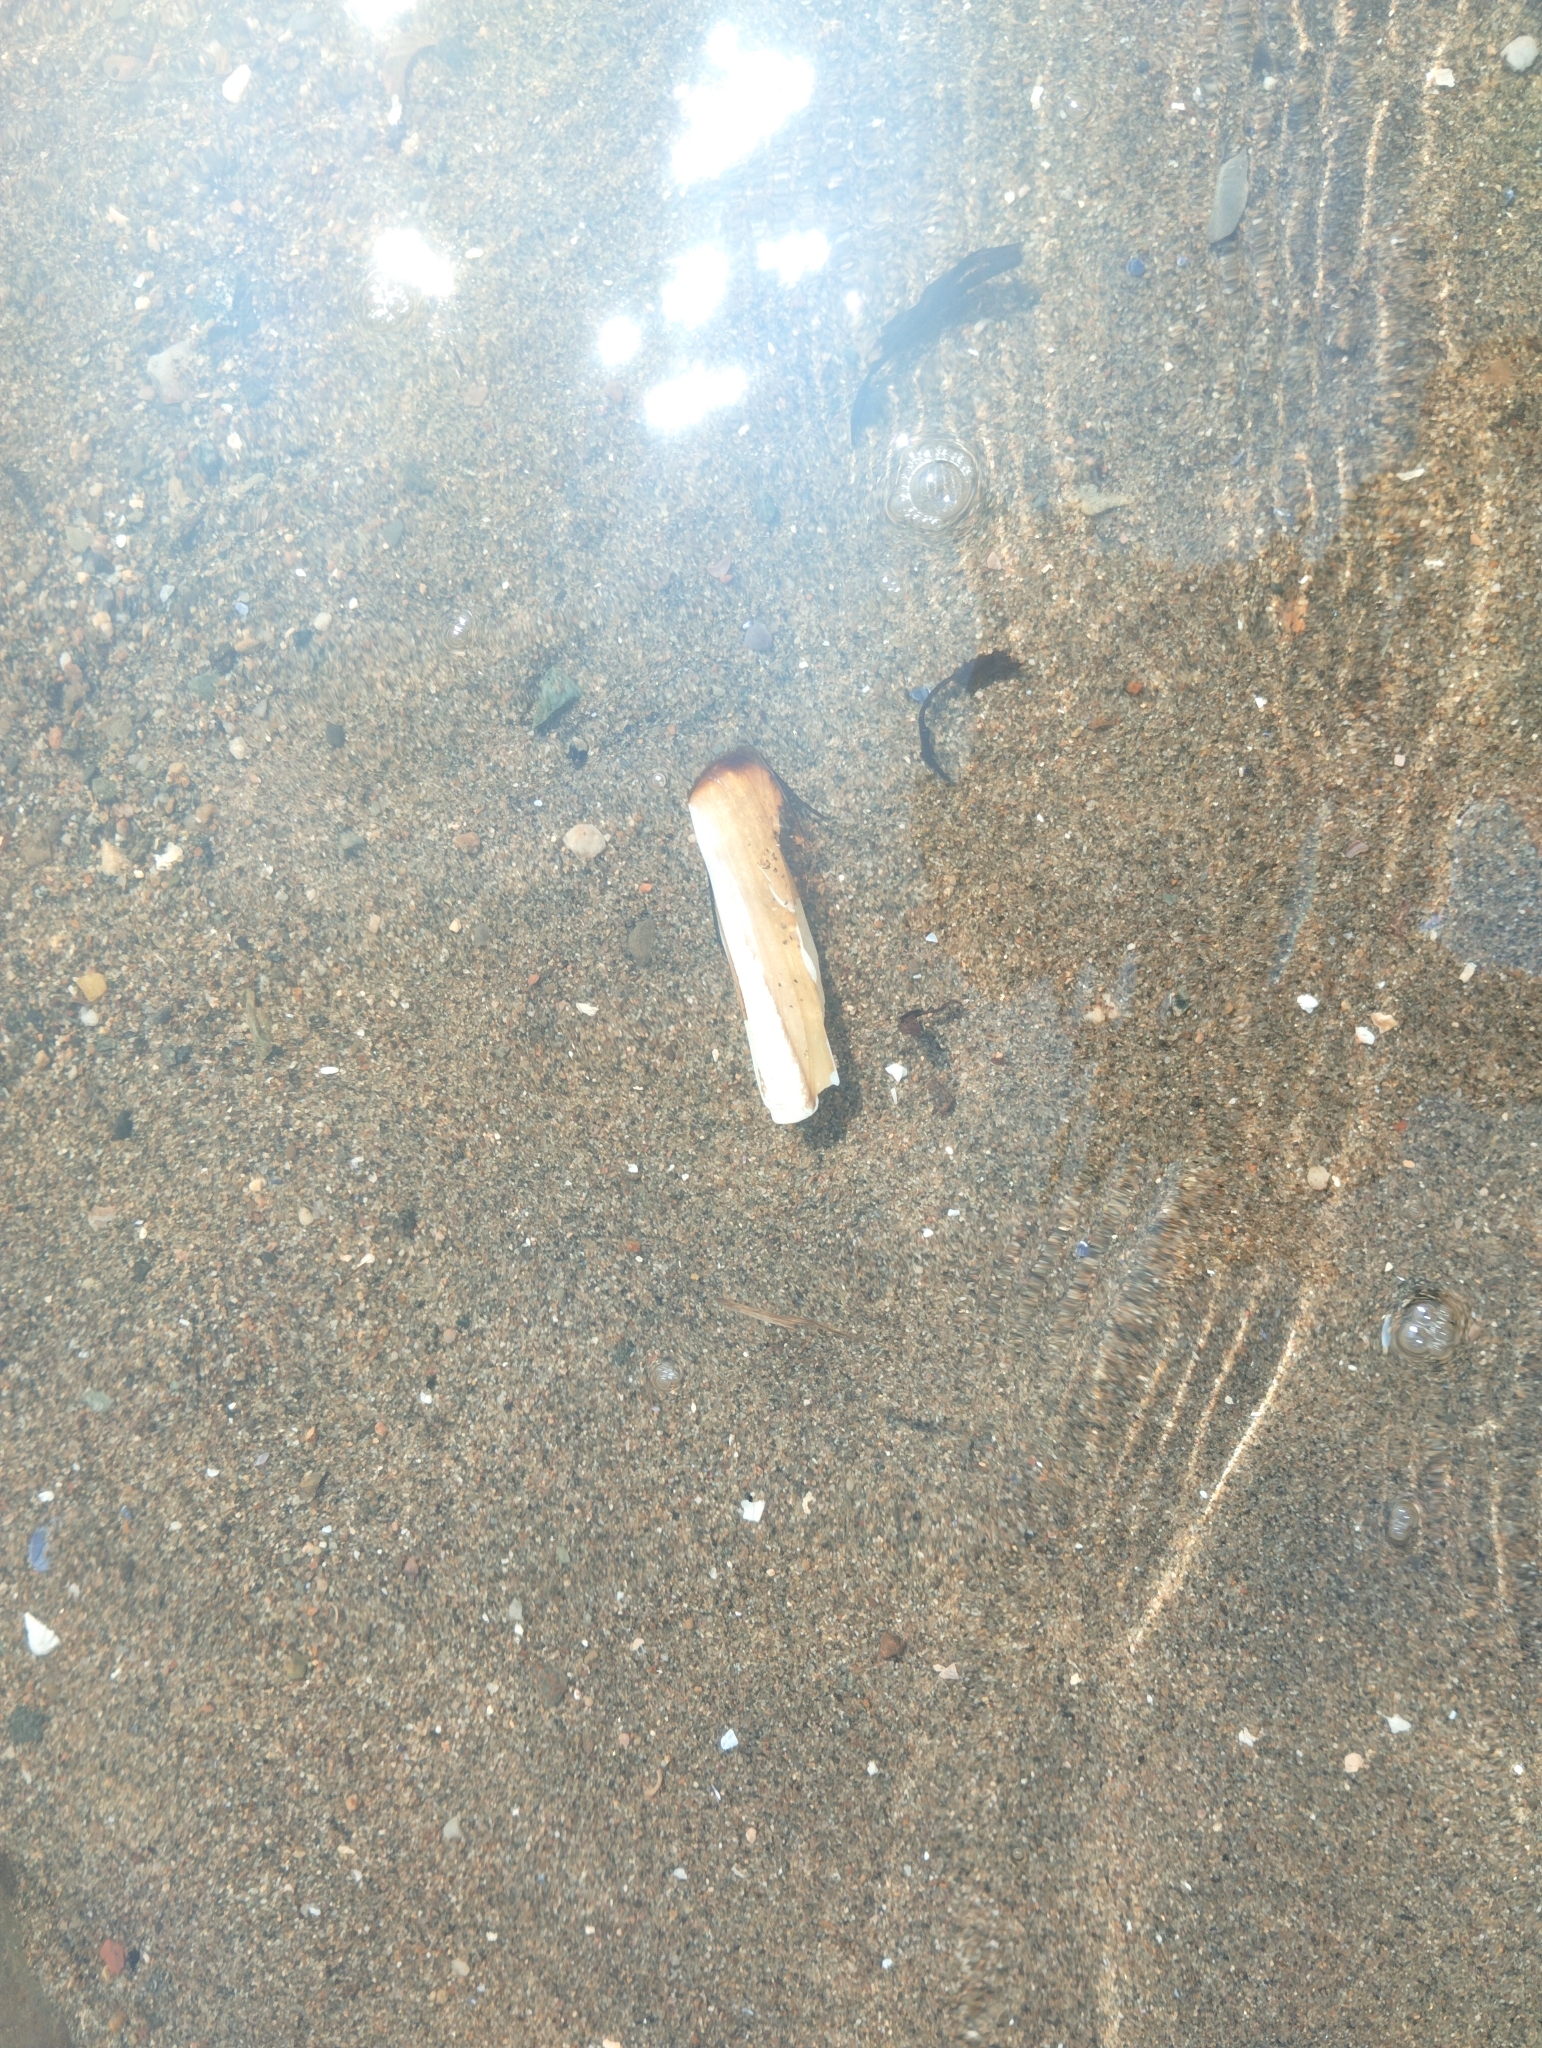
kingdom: Animalia
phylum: Mollusca
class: Bivalvia
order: Adapedonta
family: Pharidae
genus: Ensis
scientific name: Ensis leei
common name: American jack knife clam
